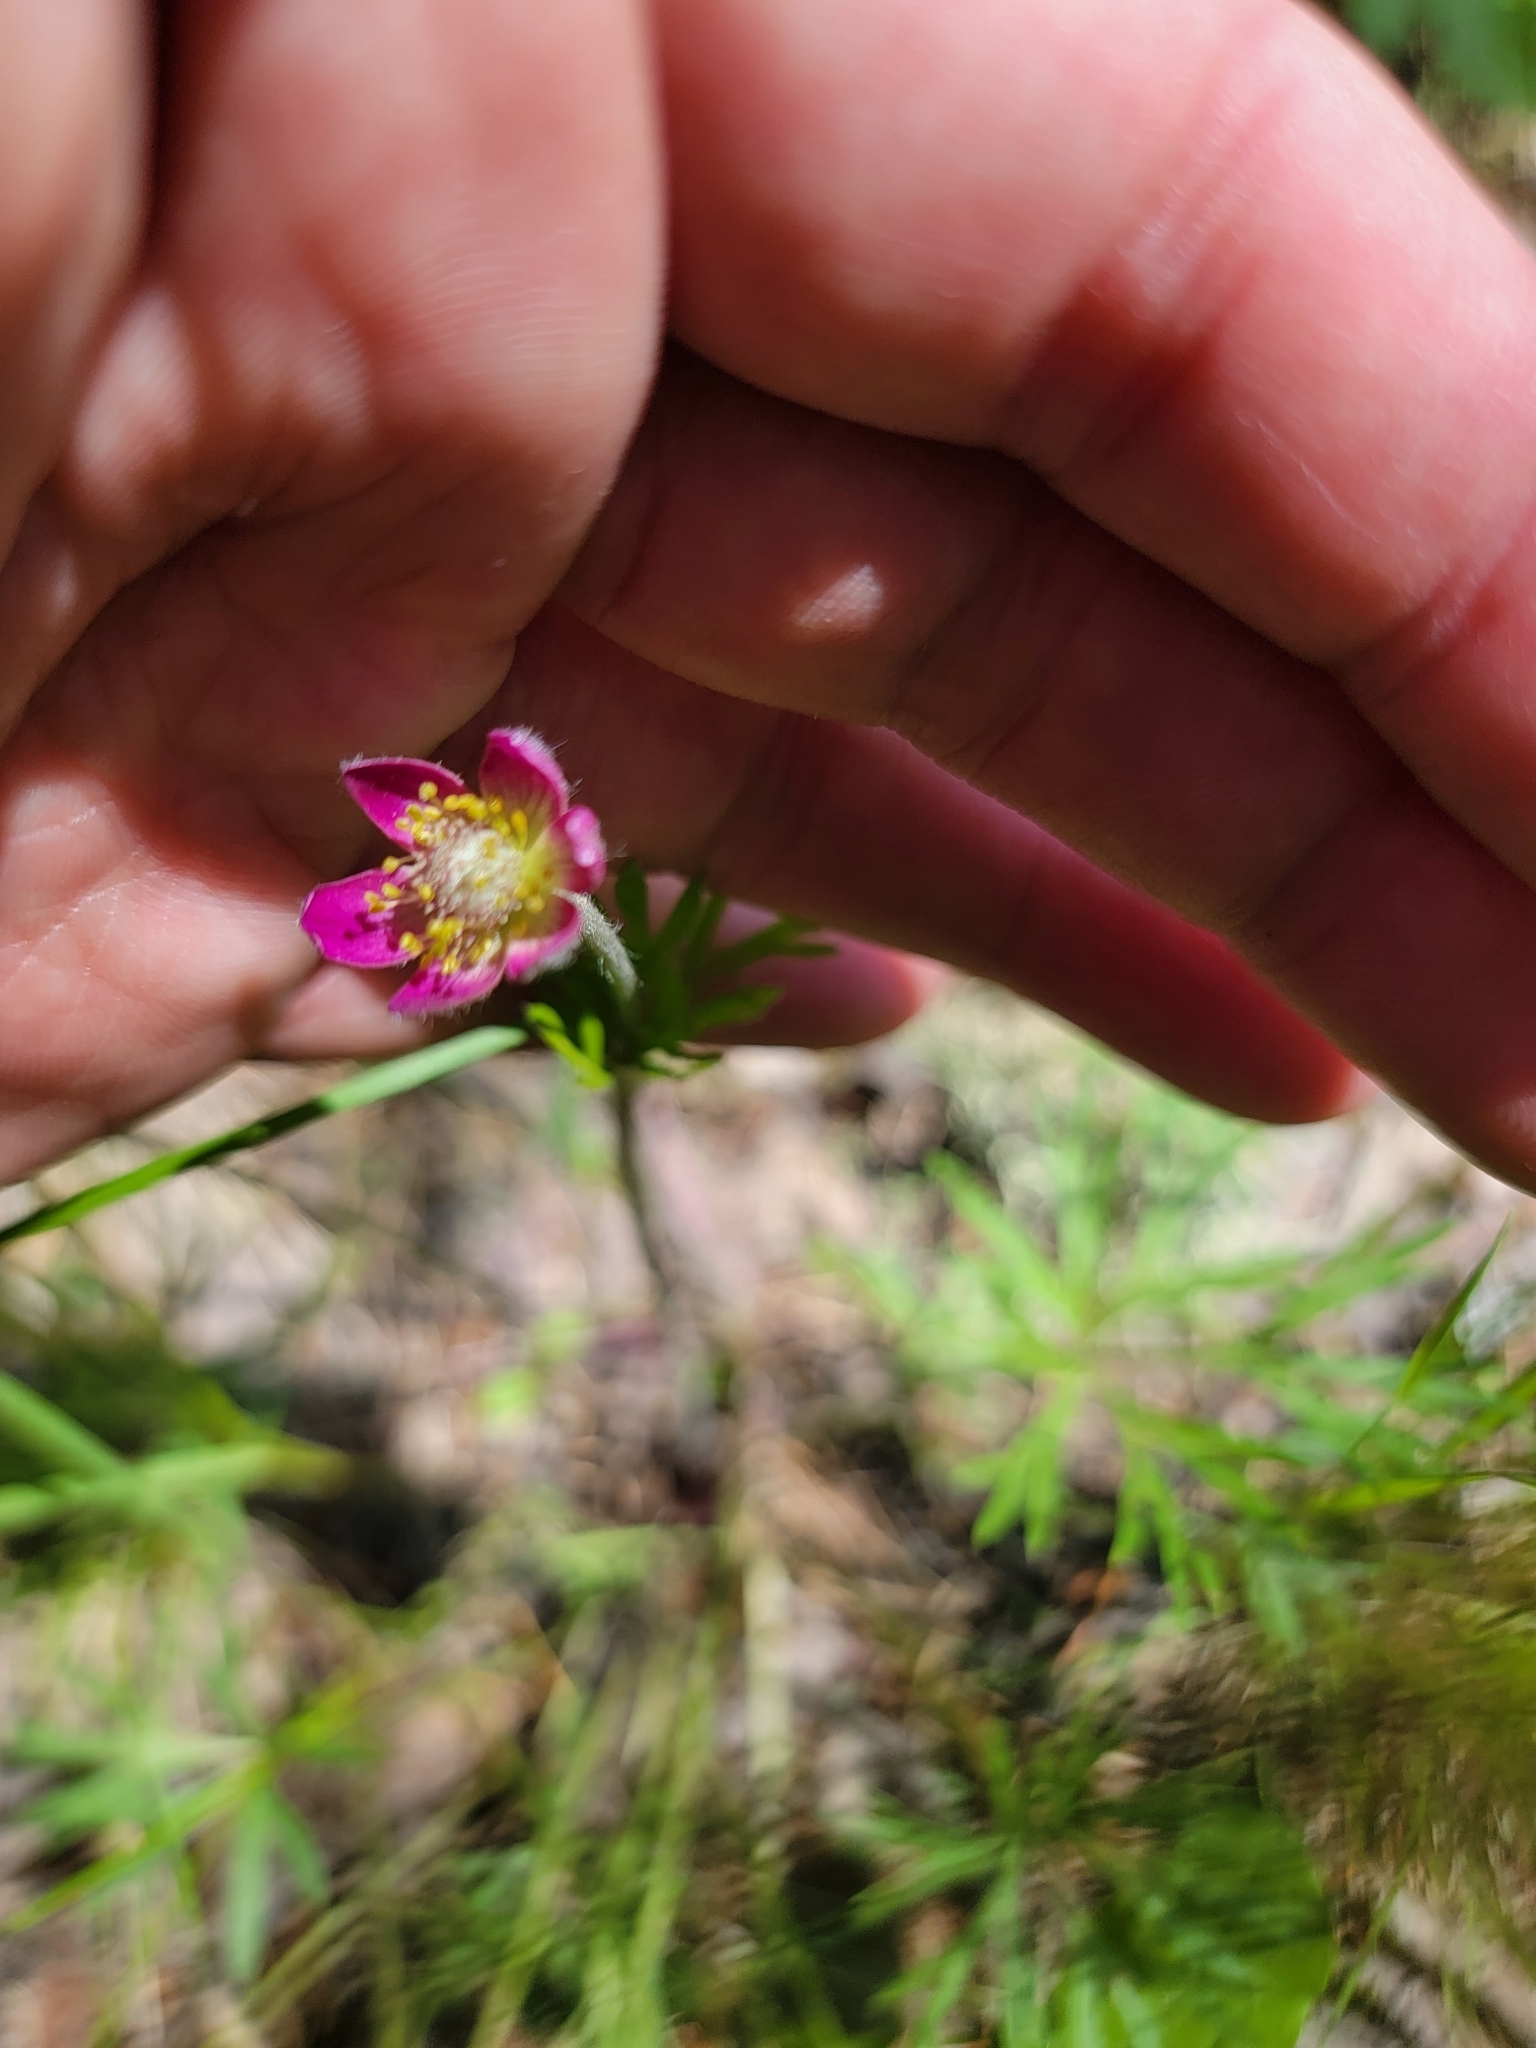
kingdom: Plantae
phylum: Tracheophyta
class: Magnoliopsida
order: Ranunculales
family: Ranunculaceae
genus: Anemone
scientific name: Anemone multifida
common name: Bird's-foot anemone
